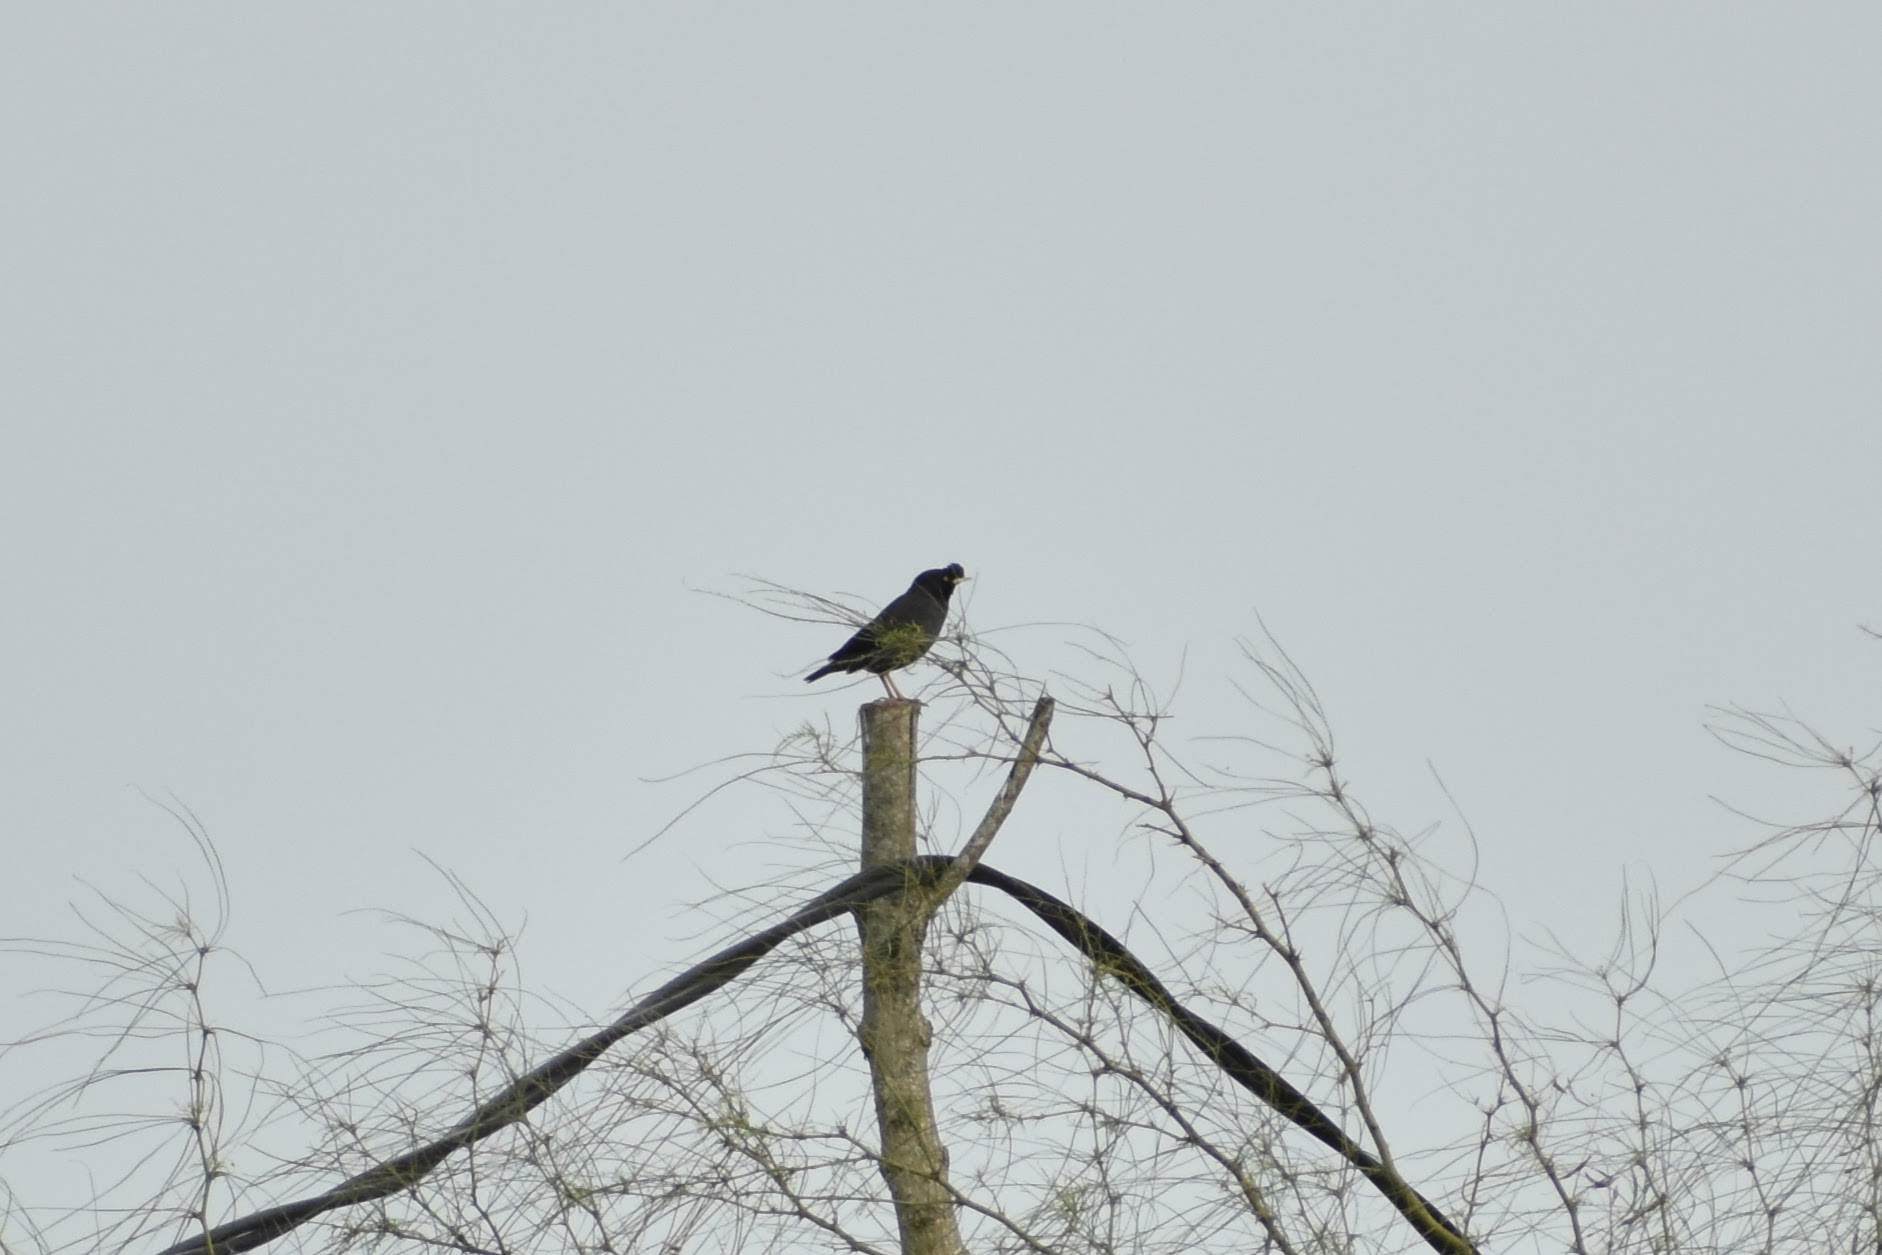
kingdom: Animalia
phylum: Chordata
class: Aves
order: Passeriformes
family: Sturnidae
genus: Acridotheres
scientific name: Acridotheres cristatellus
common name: Crested myna
